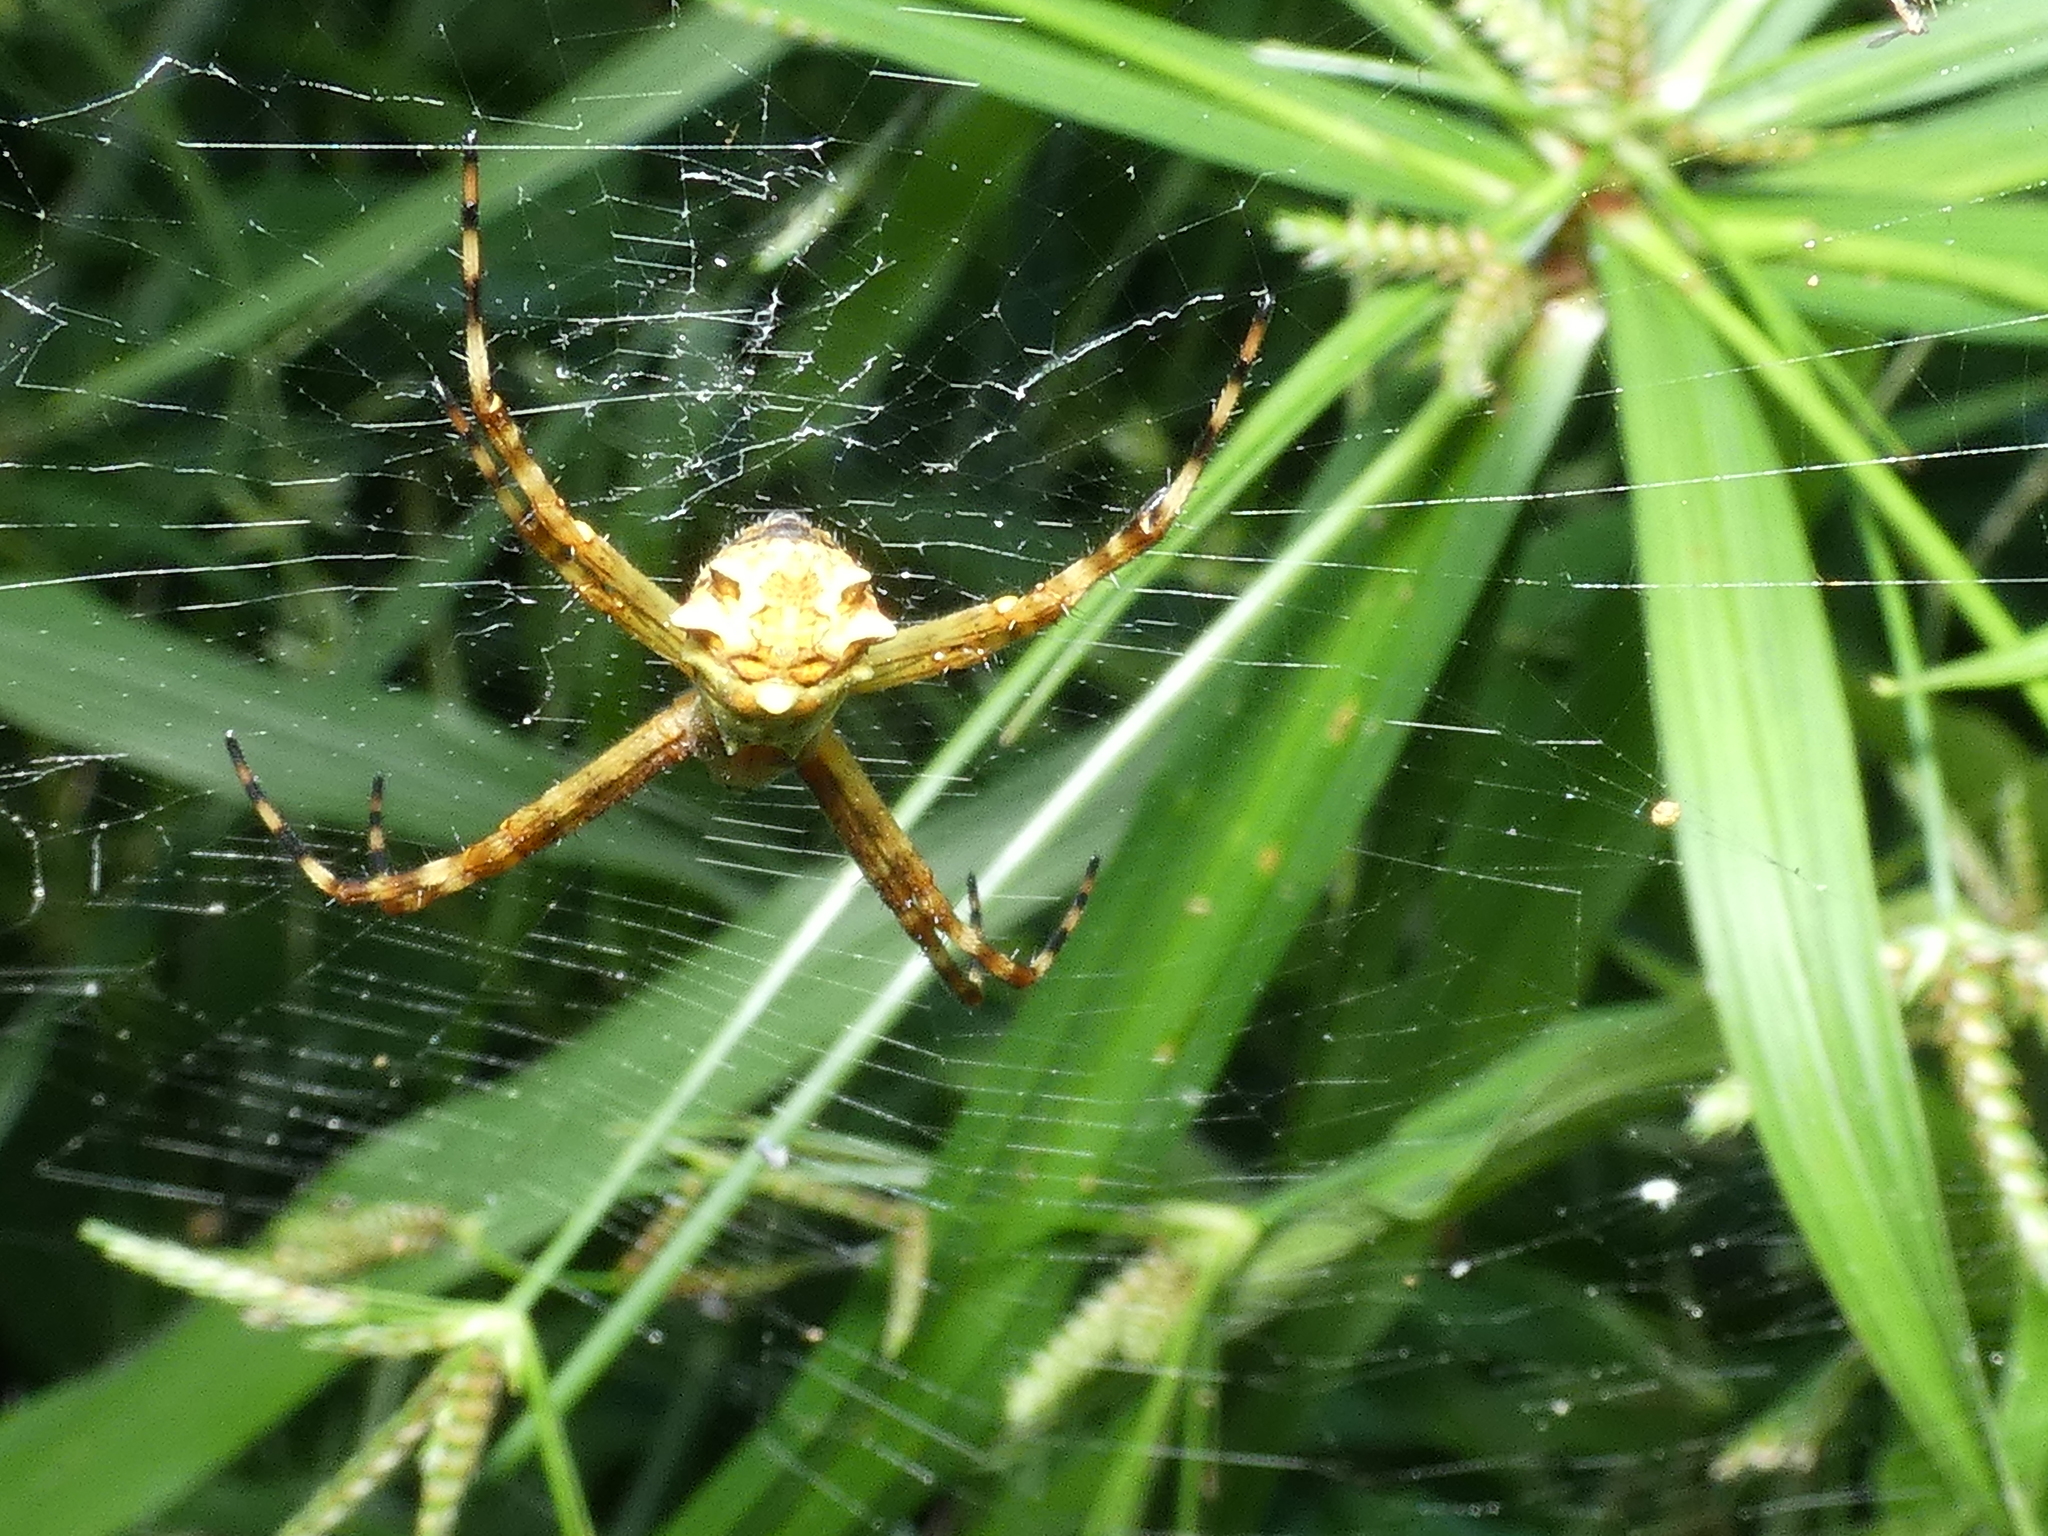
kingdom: Animalia
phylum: Arthropoda
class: Arachnida
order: Araneae
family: Araneidae
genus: Argiope
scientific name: Argiope argentata
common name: Orb weavers
